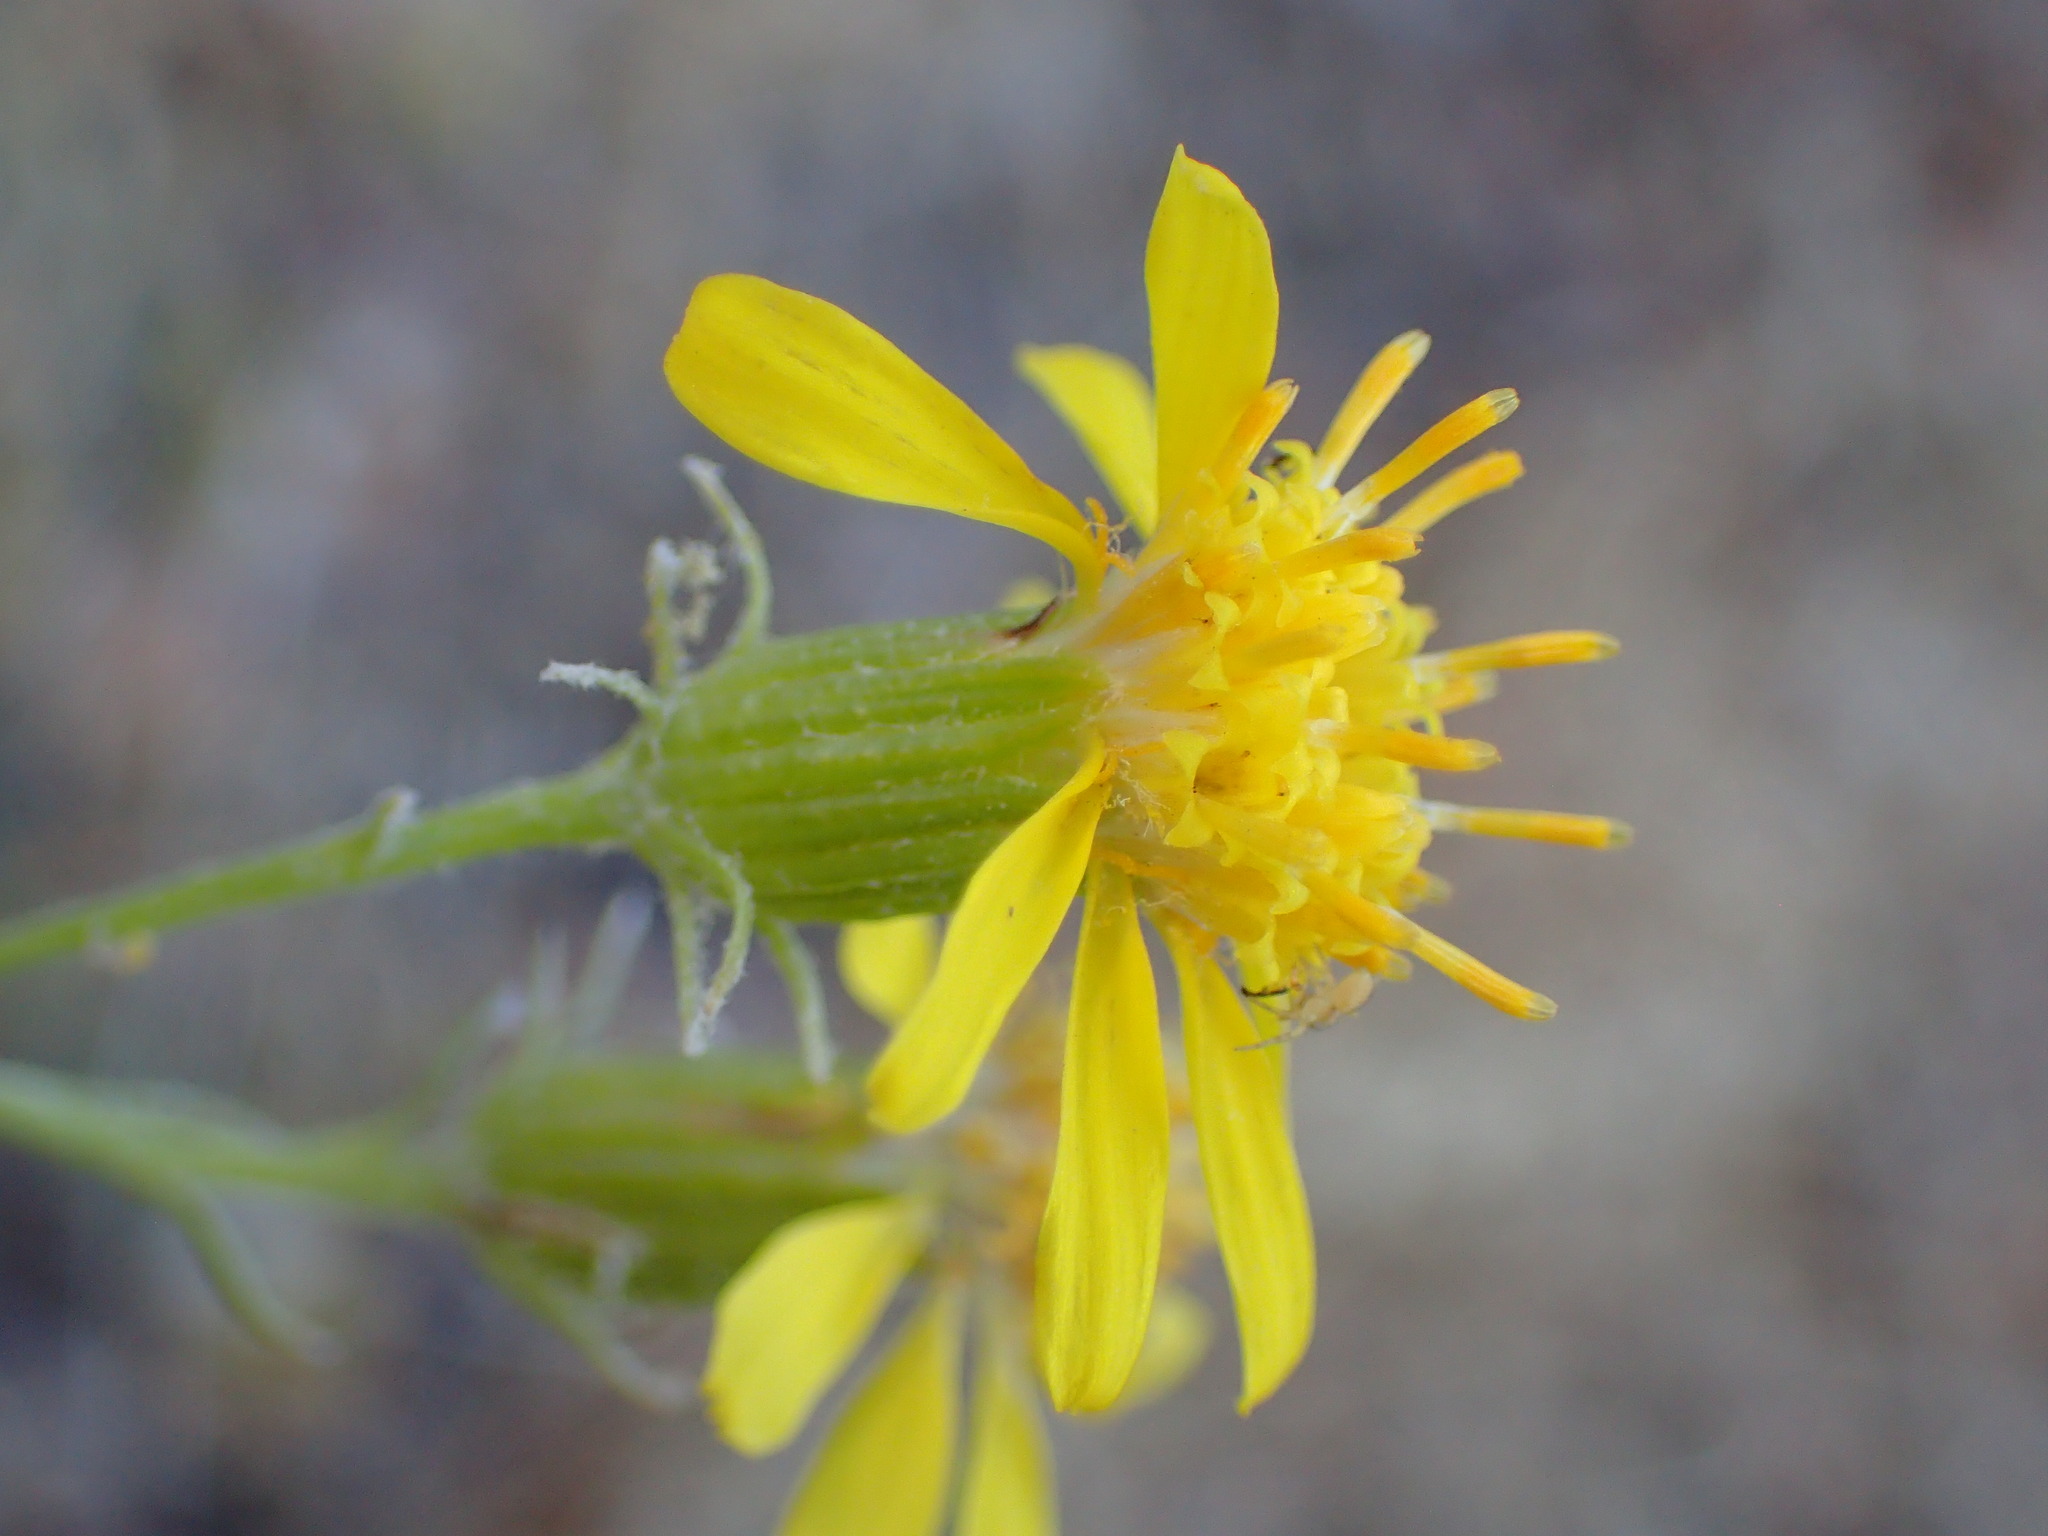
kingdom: Plantae
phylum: Tracheophyta
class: Magnoliopsida
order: Asterales
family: Asteraceae
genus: Senecio
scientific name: Senecio flaccidus
